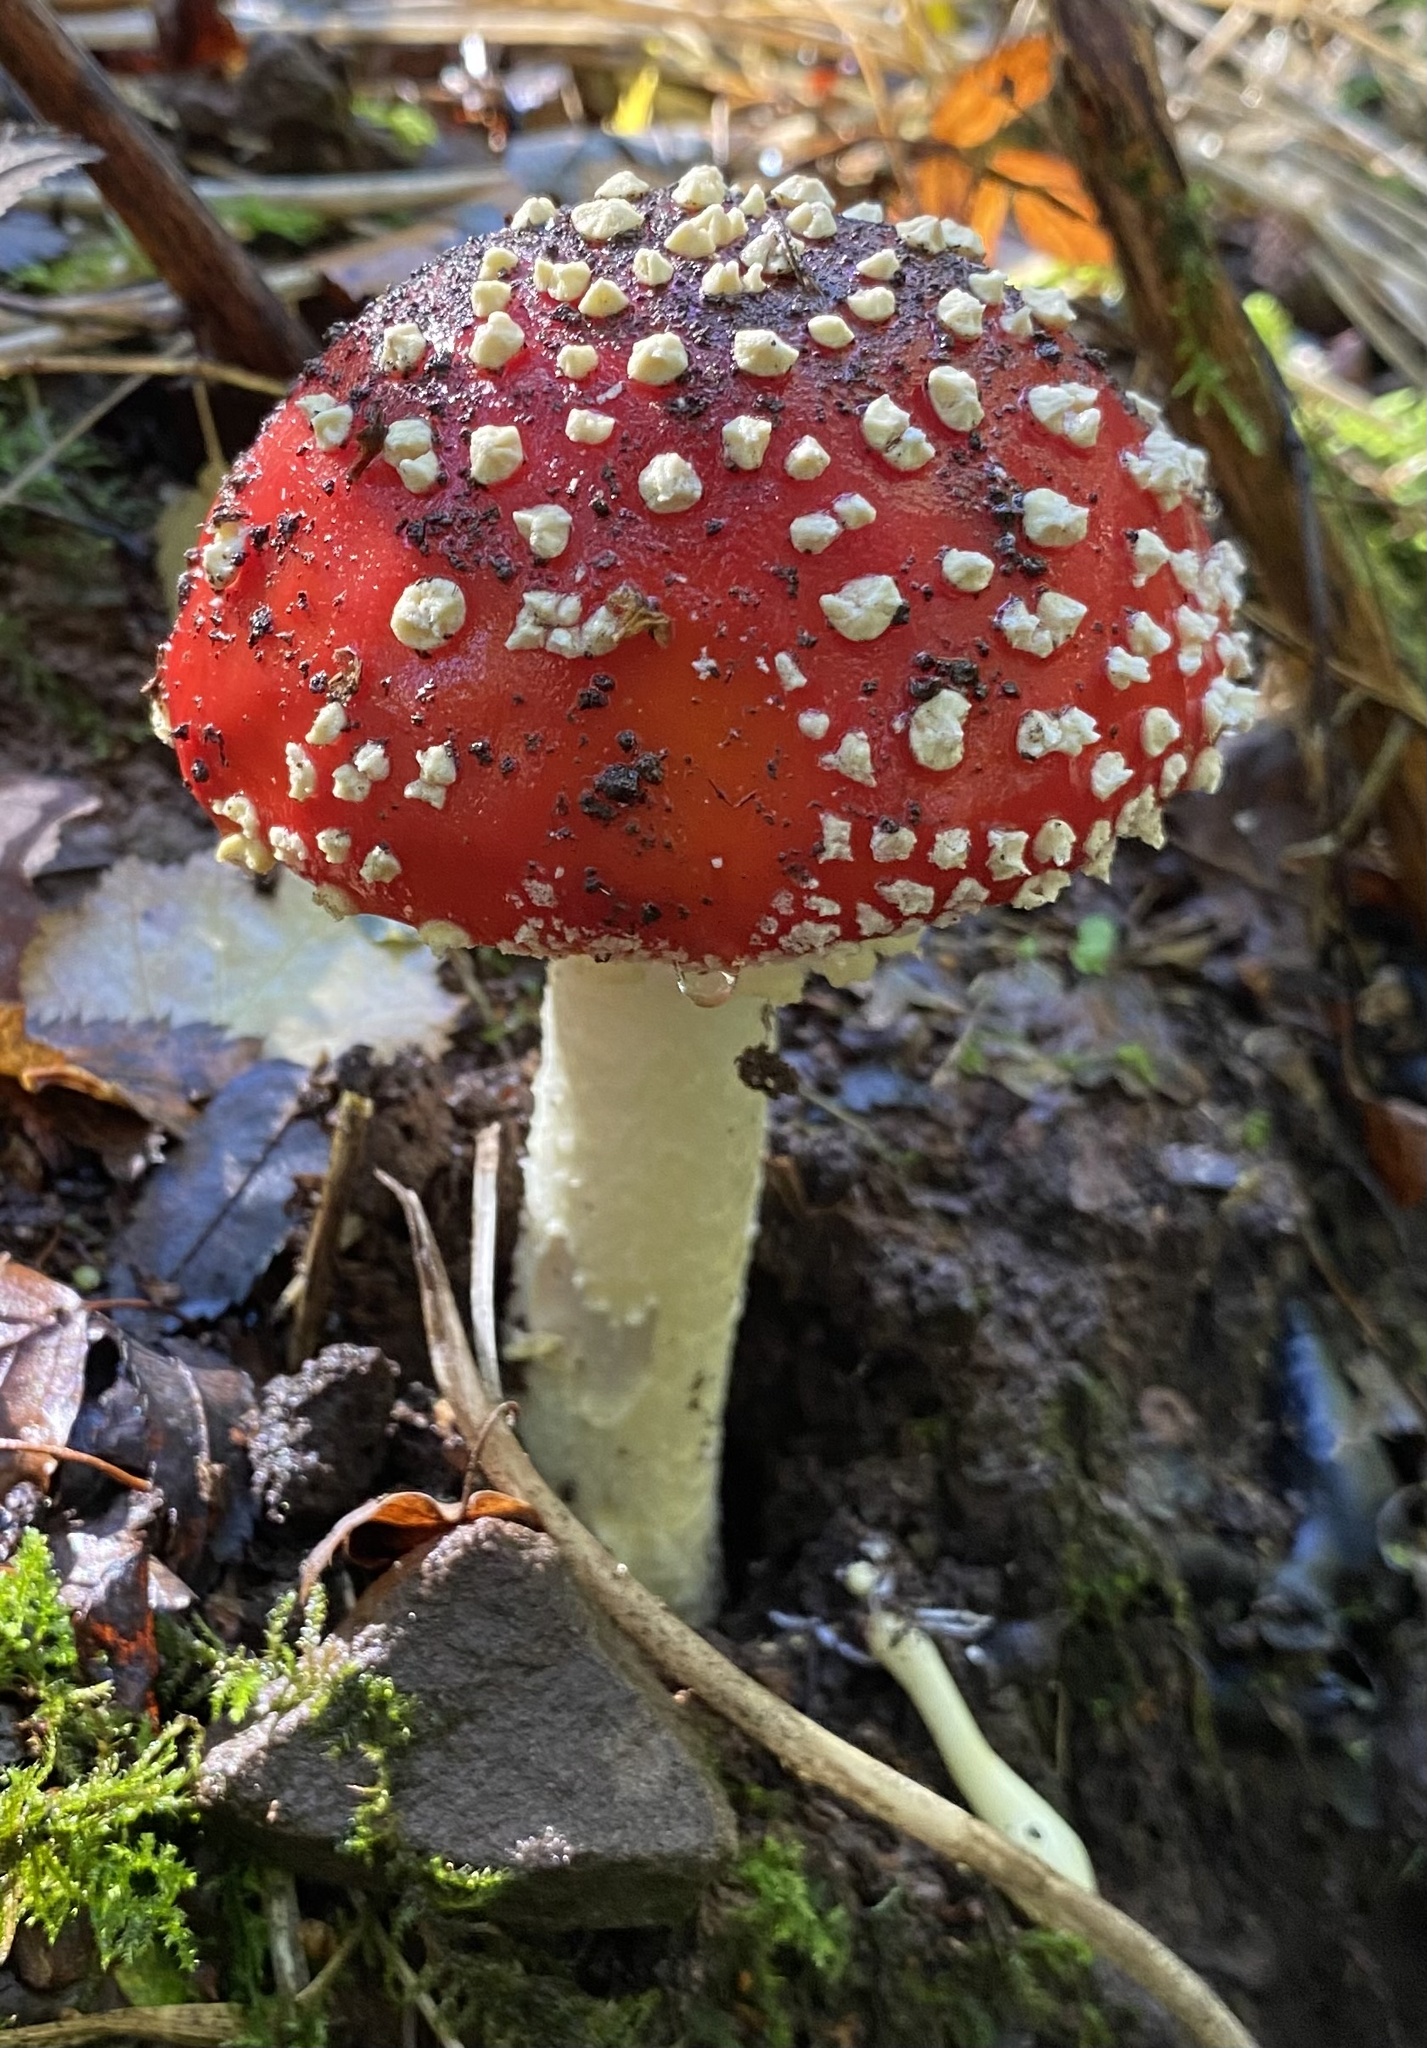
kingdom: Fungi
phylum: Basidiomycota
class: Agaricomycetes
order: Agaricales
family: Amanitaceae
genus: Amanita
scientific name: Amanita muscaria
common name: Fly agaric
